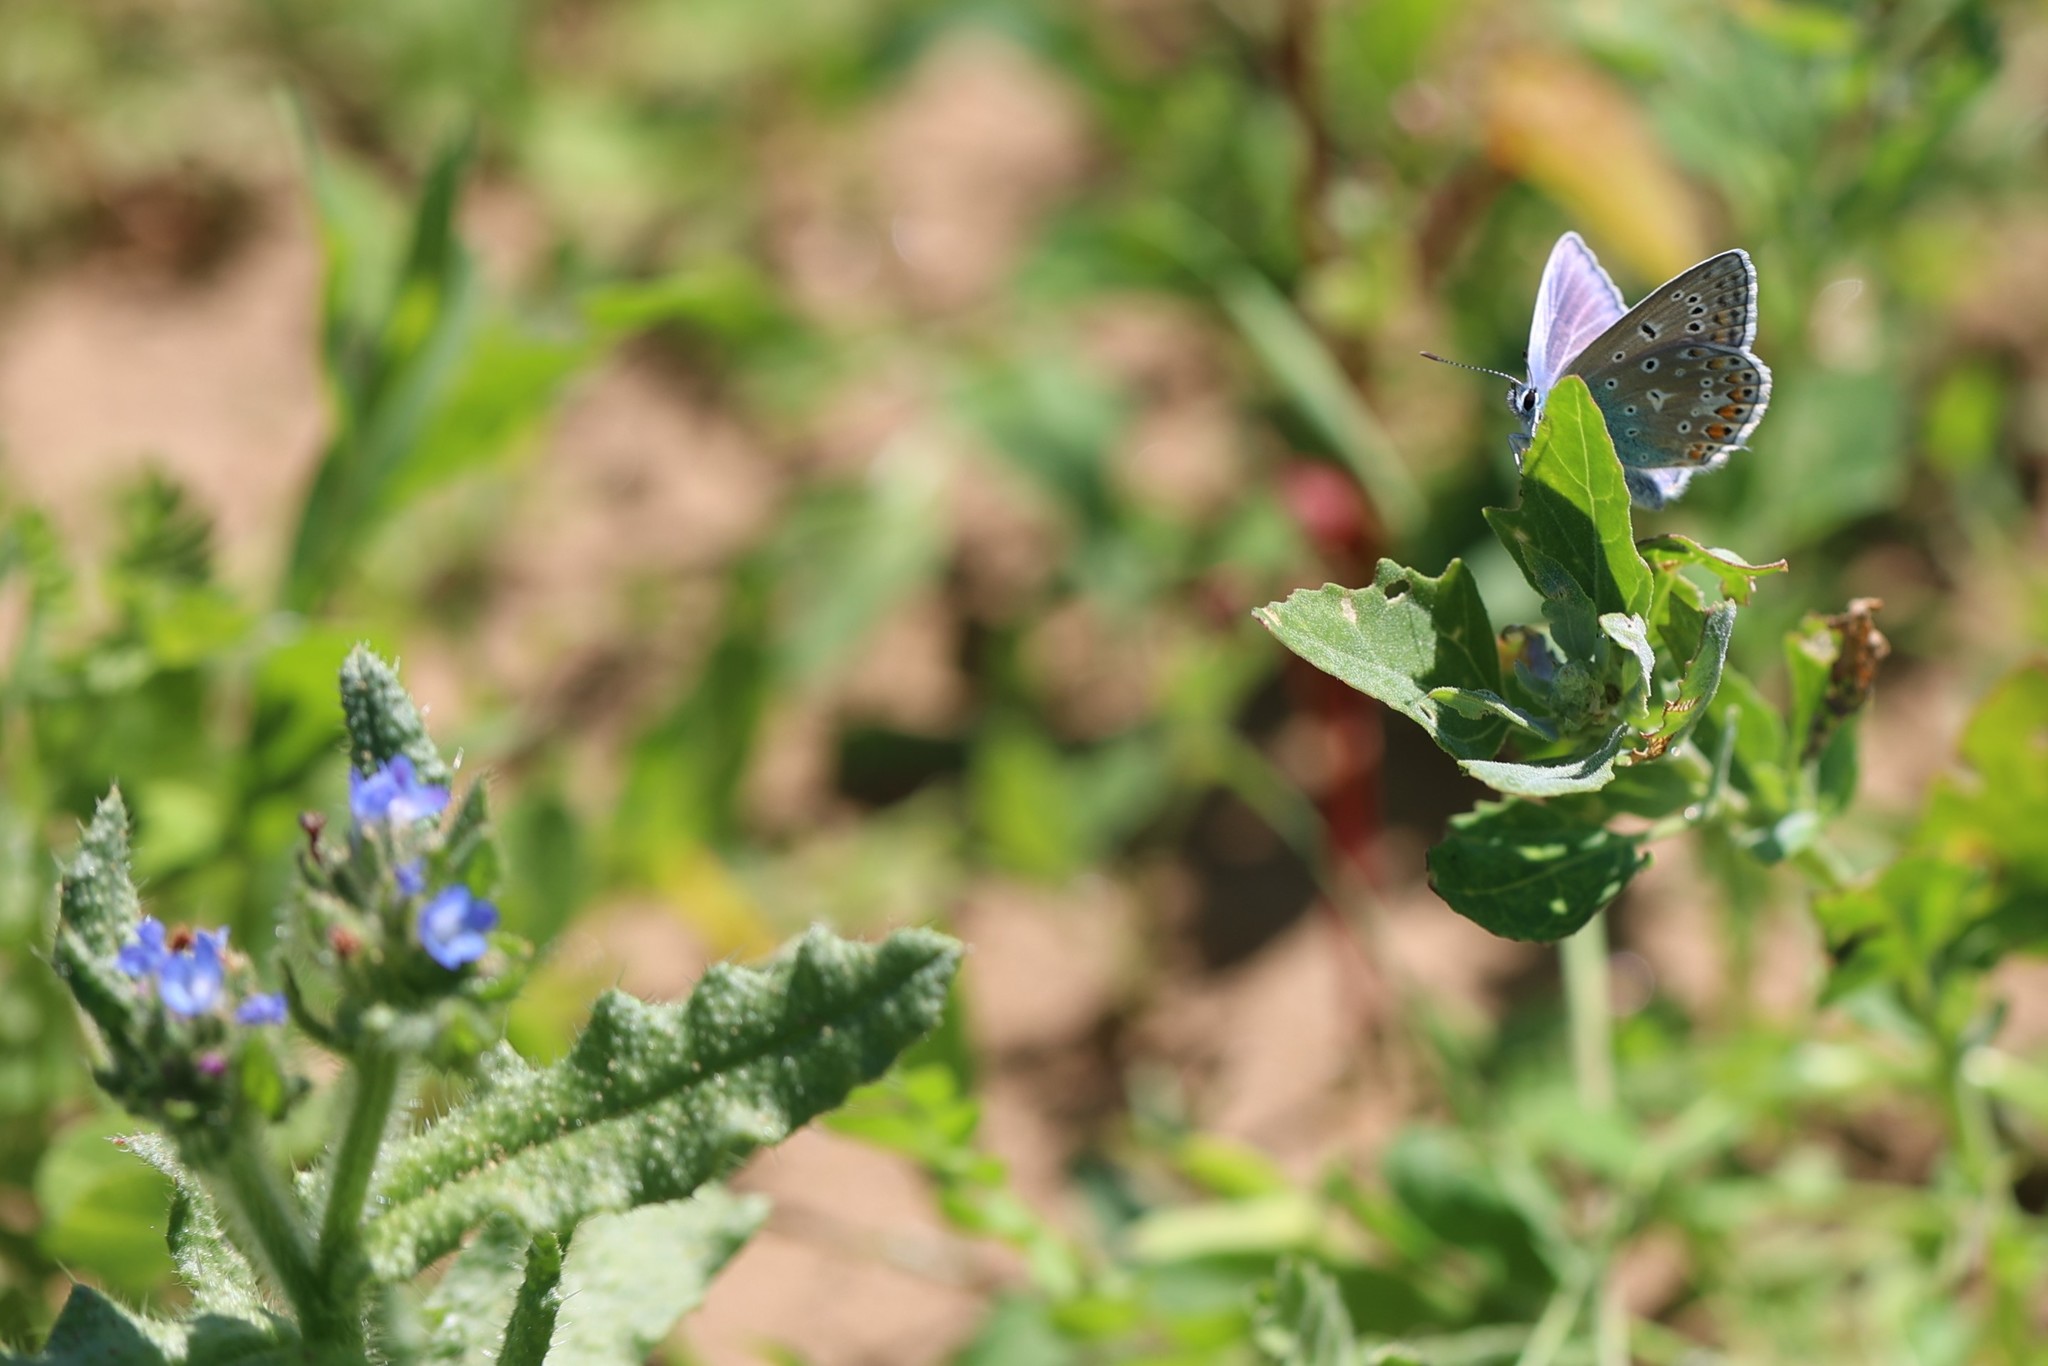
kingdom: Animalia
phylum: Arthropoda
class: Insecta
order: Lepidoptera
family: Lycaenidae
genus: Polyommatus
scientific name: Polyommatus icarus
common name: Common blue
